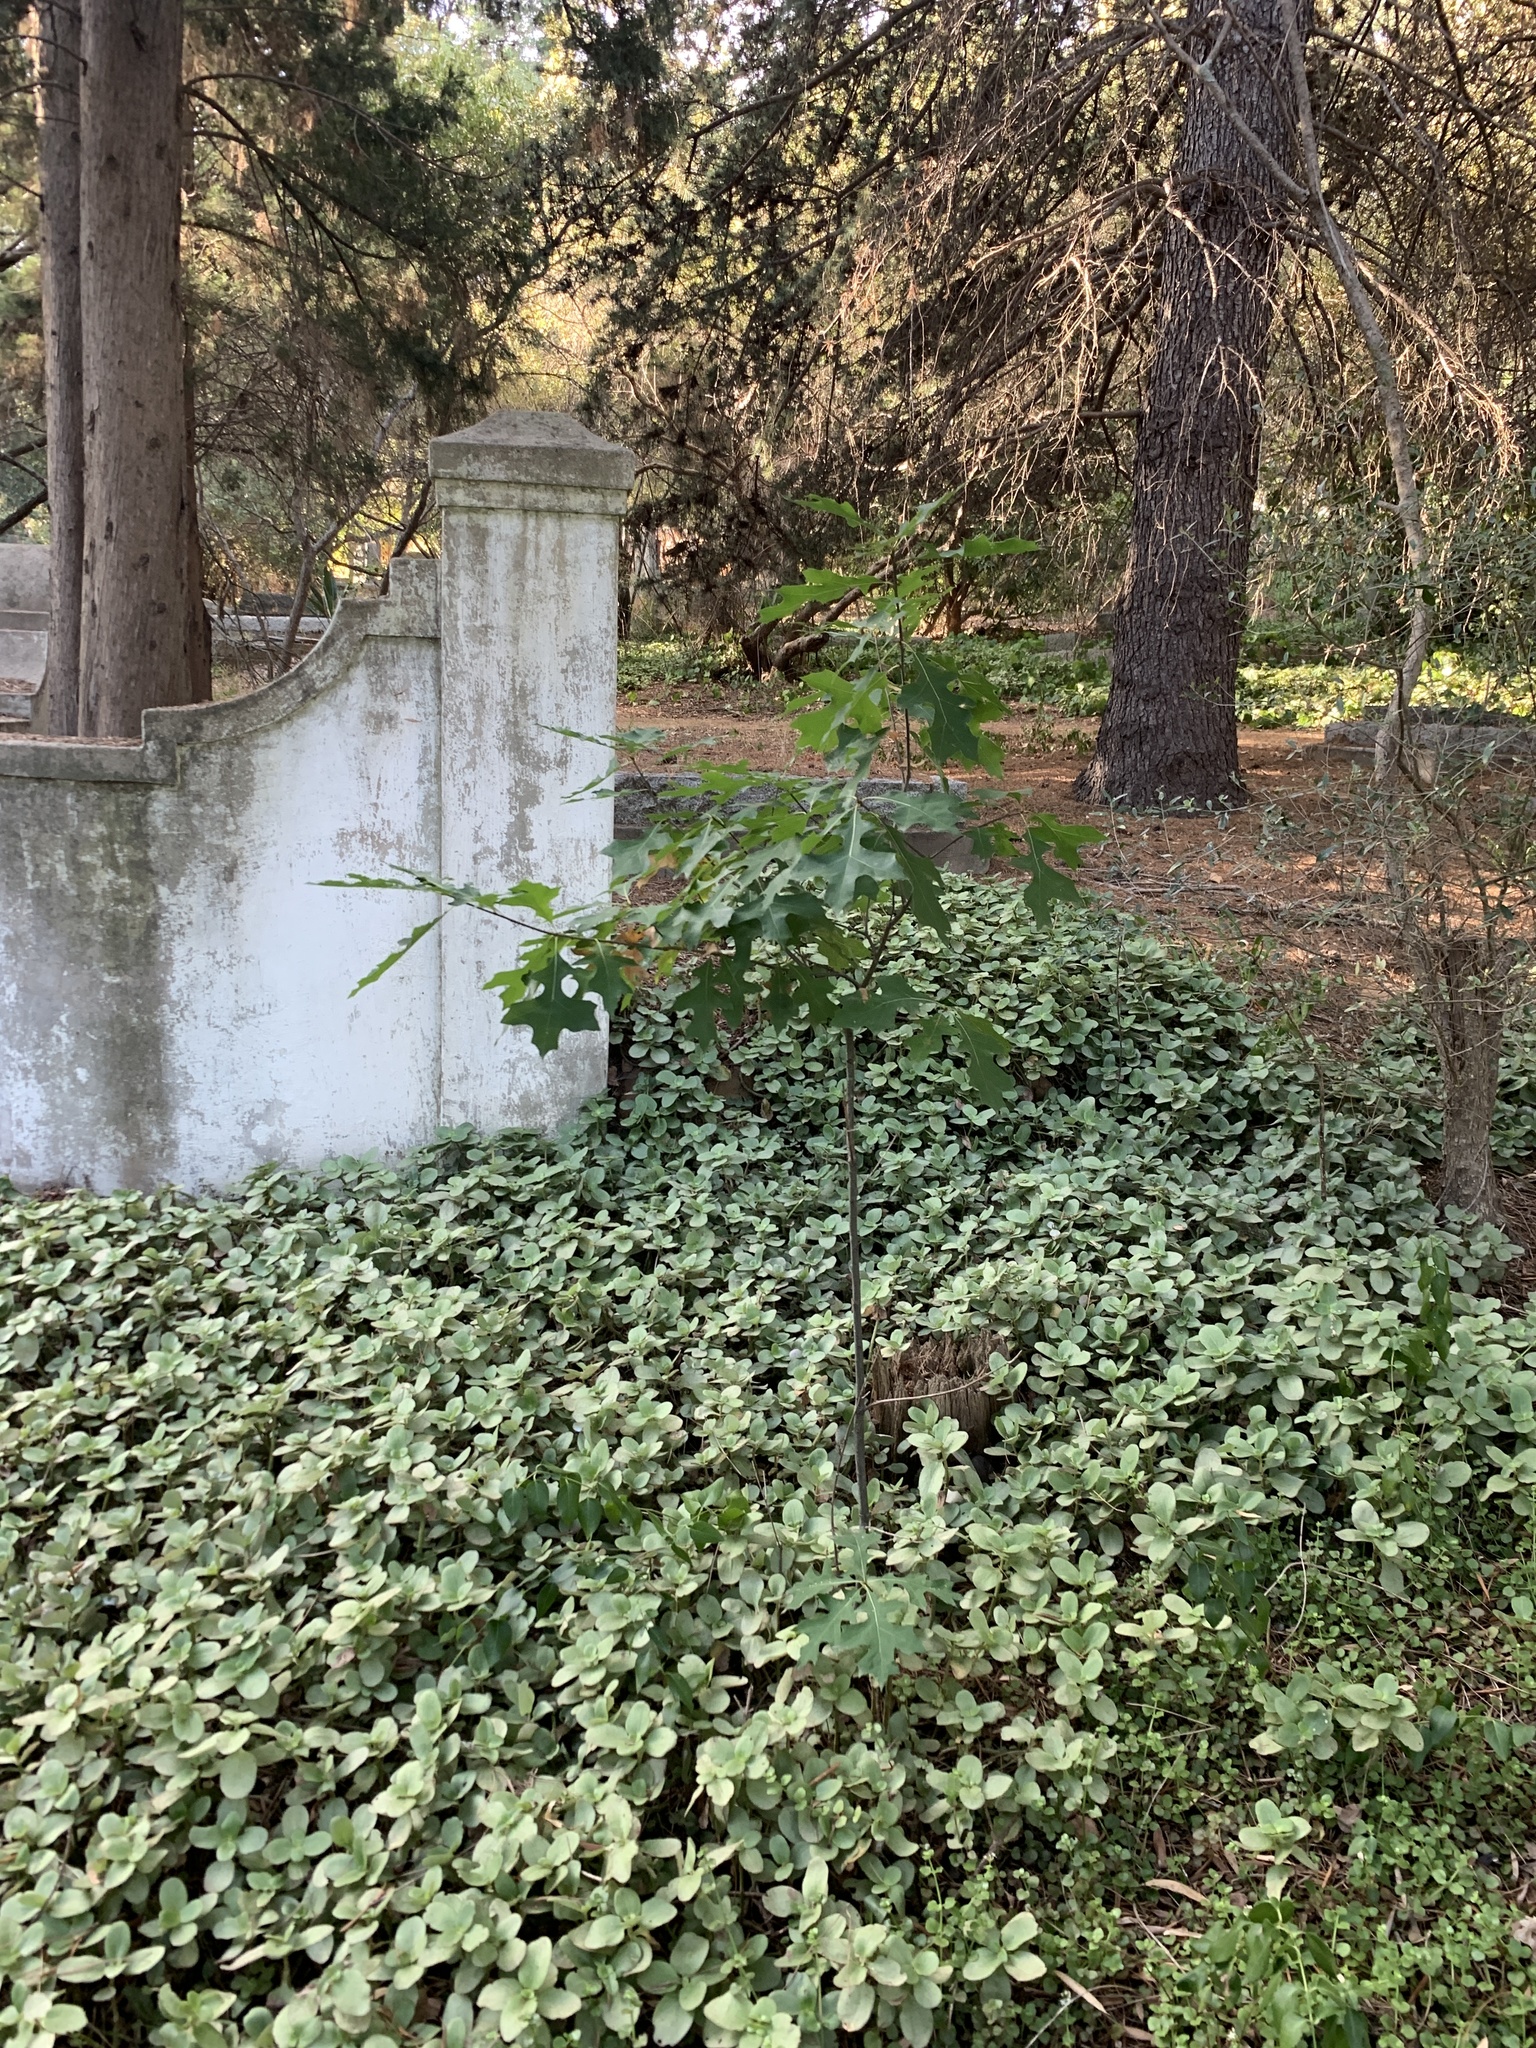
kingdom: Plantae
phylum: Tracheophyta
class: Magnoliopsida
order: Fagales
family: Fagaceae
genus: Quercus
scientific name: Quercus palustris
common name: Pin oak
